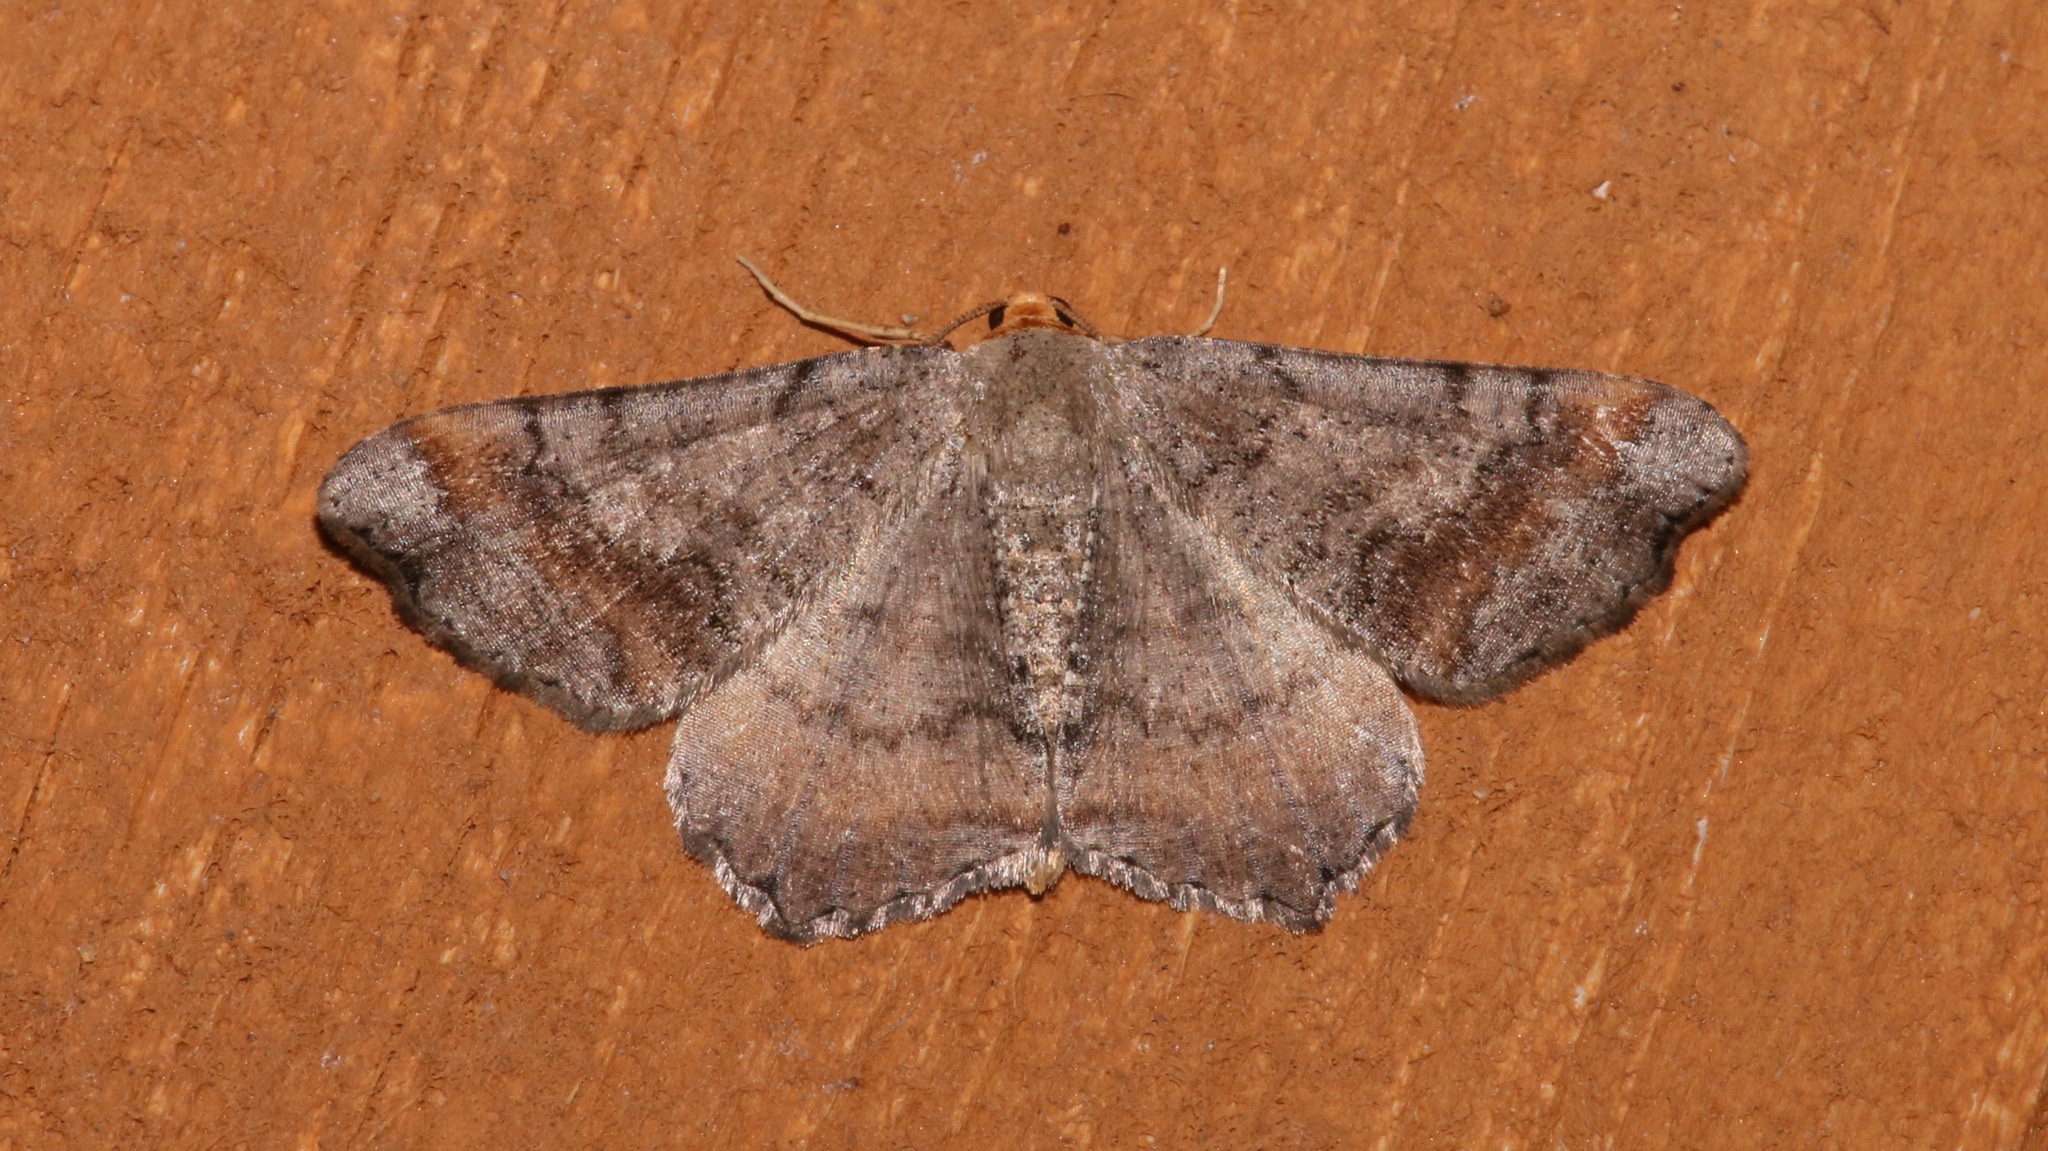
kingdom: Animalia
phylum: Arthropoda
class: Insecta
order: Lepidoptera
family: Geometridae
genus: Macaria
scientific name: Macaria distribuaria
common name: Southern chocolate angle
